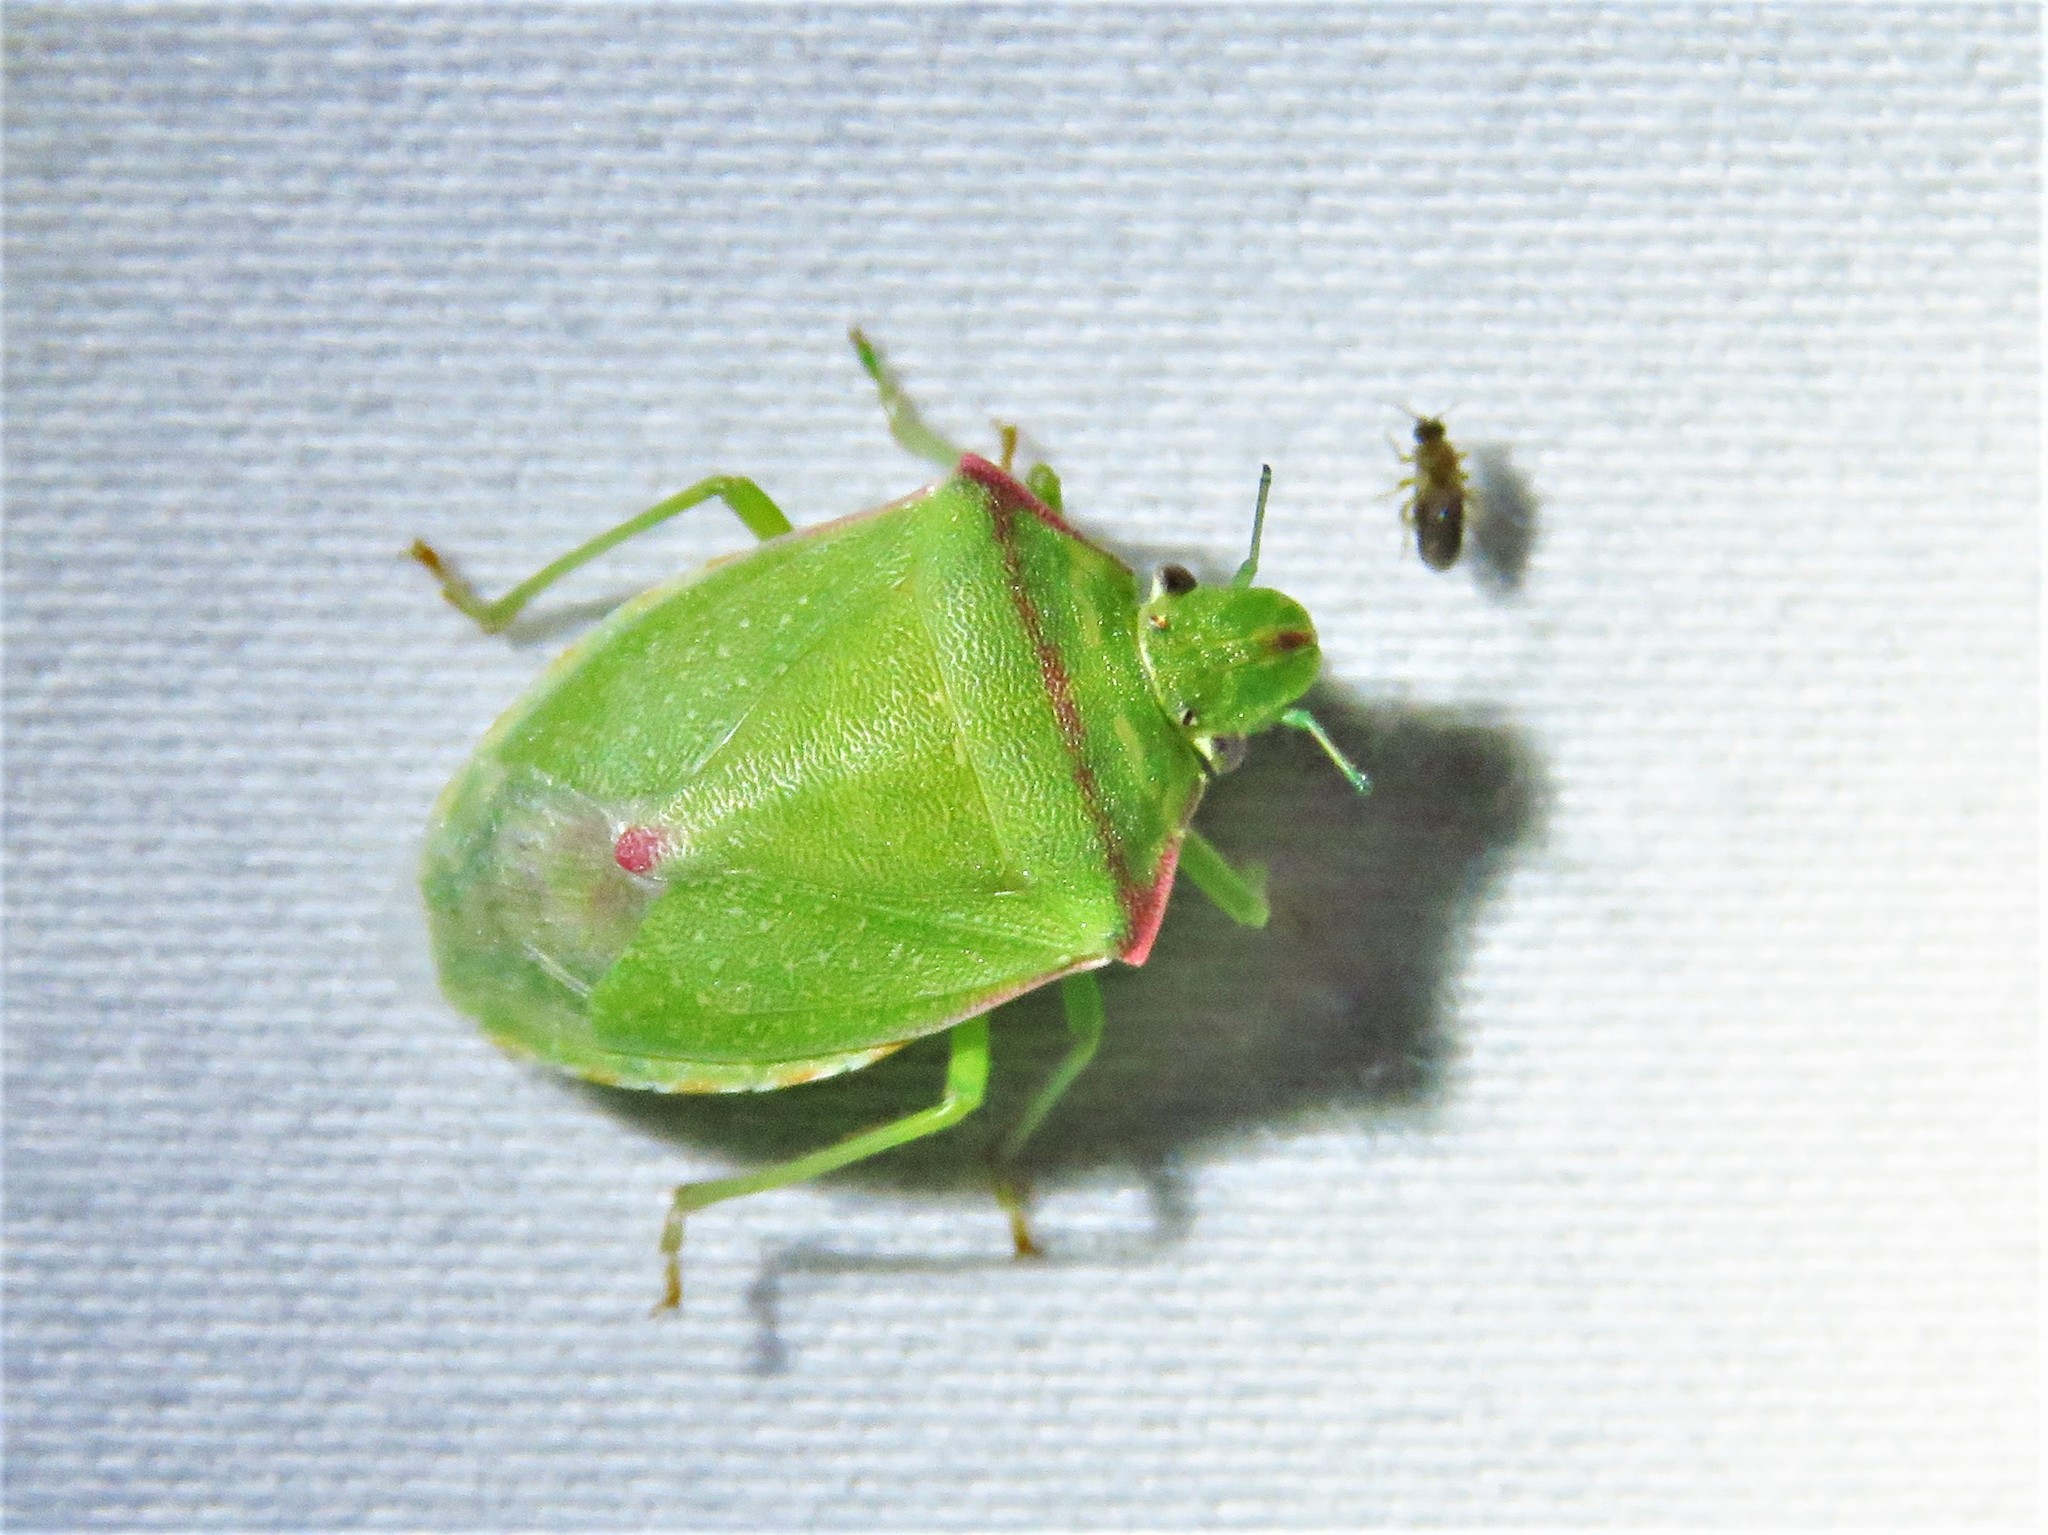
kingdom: Animalia
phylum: Arthropoda
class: Insecta
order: Hemiptera
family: Pentatomidae
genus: Thyanta
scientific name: Thyanta custator
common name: Stink bug
